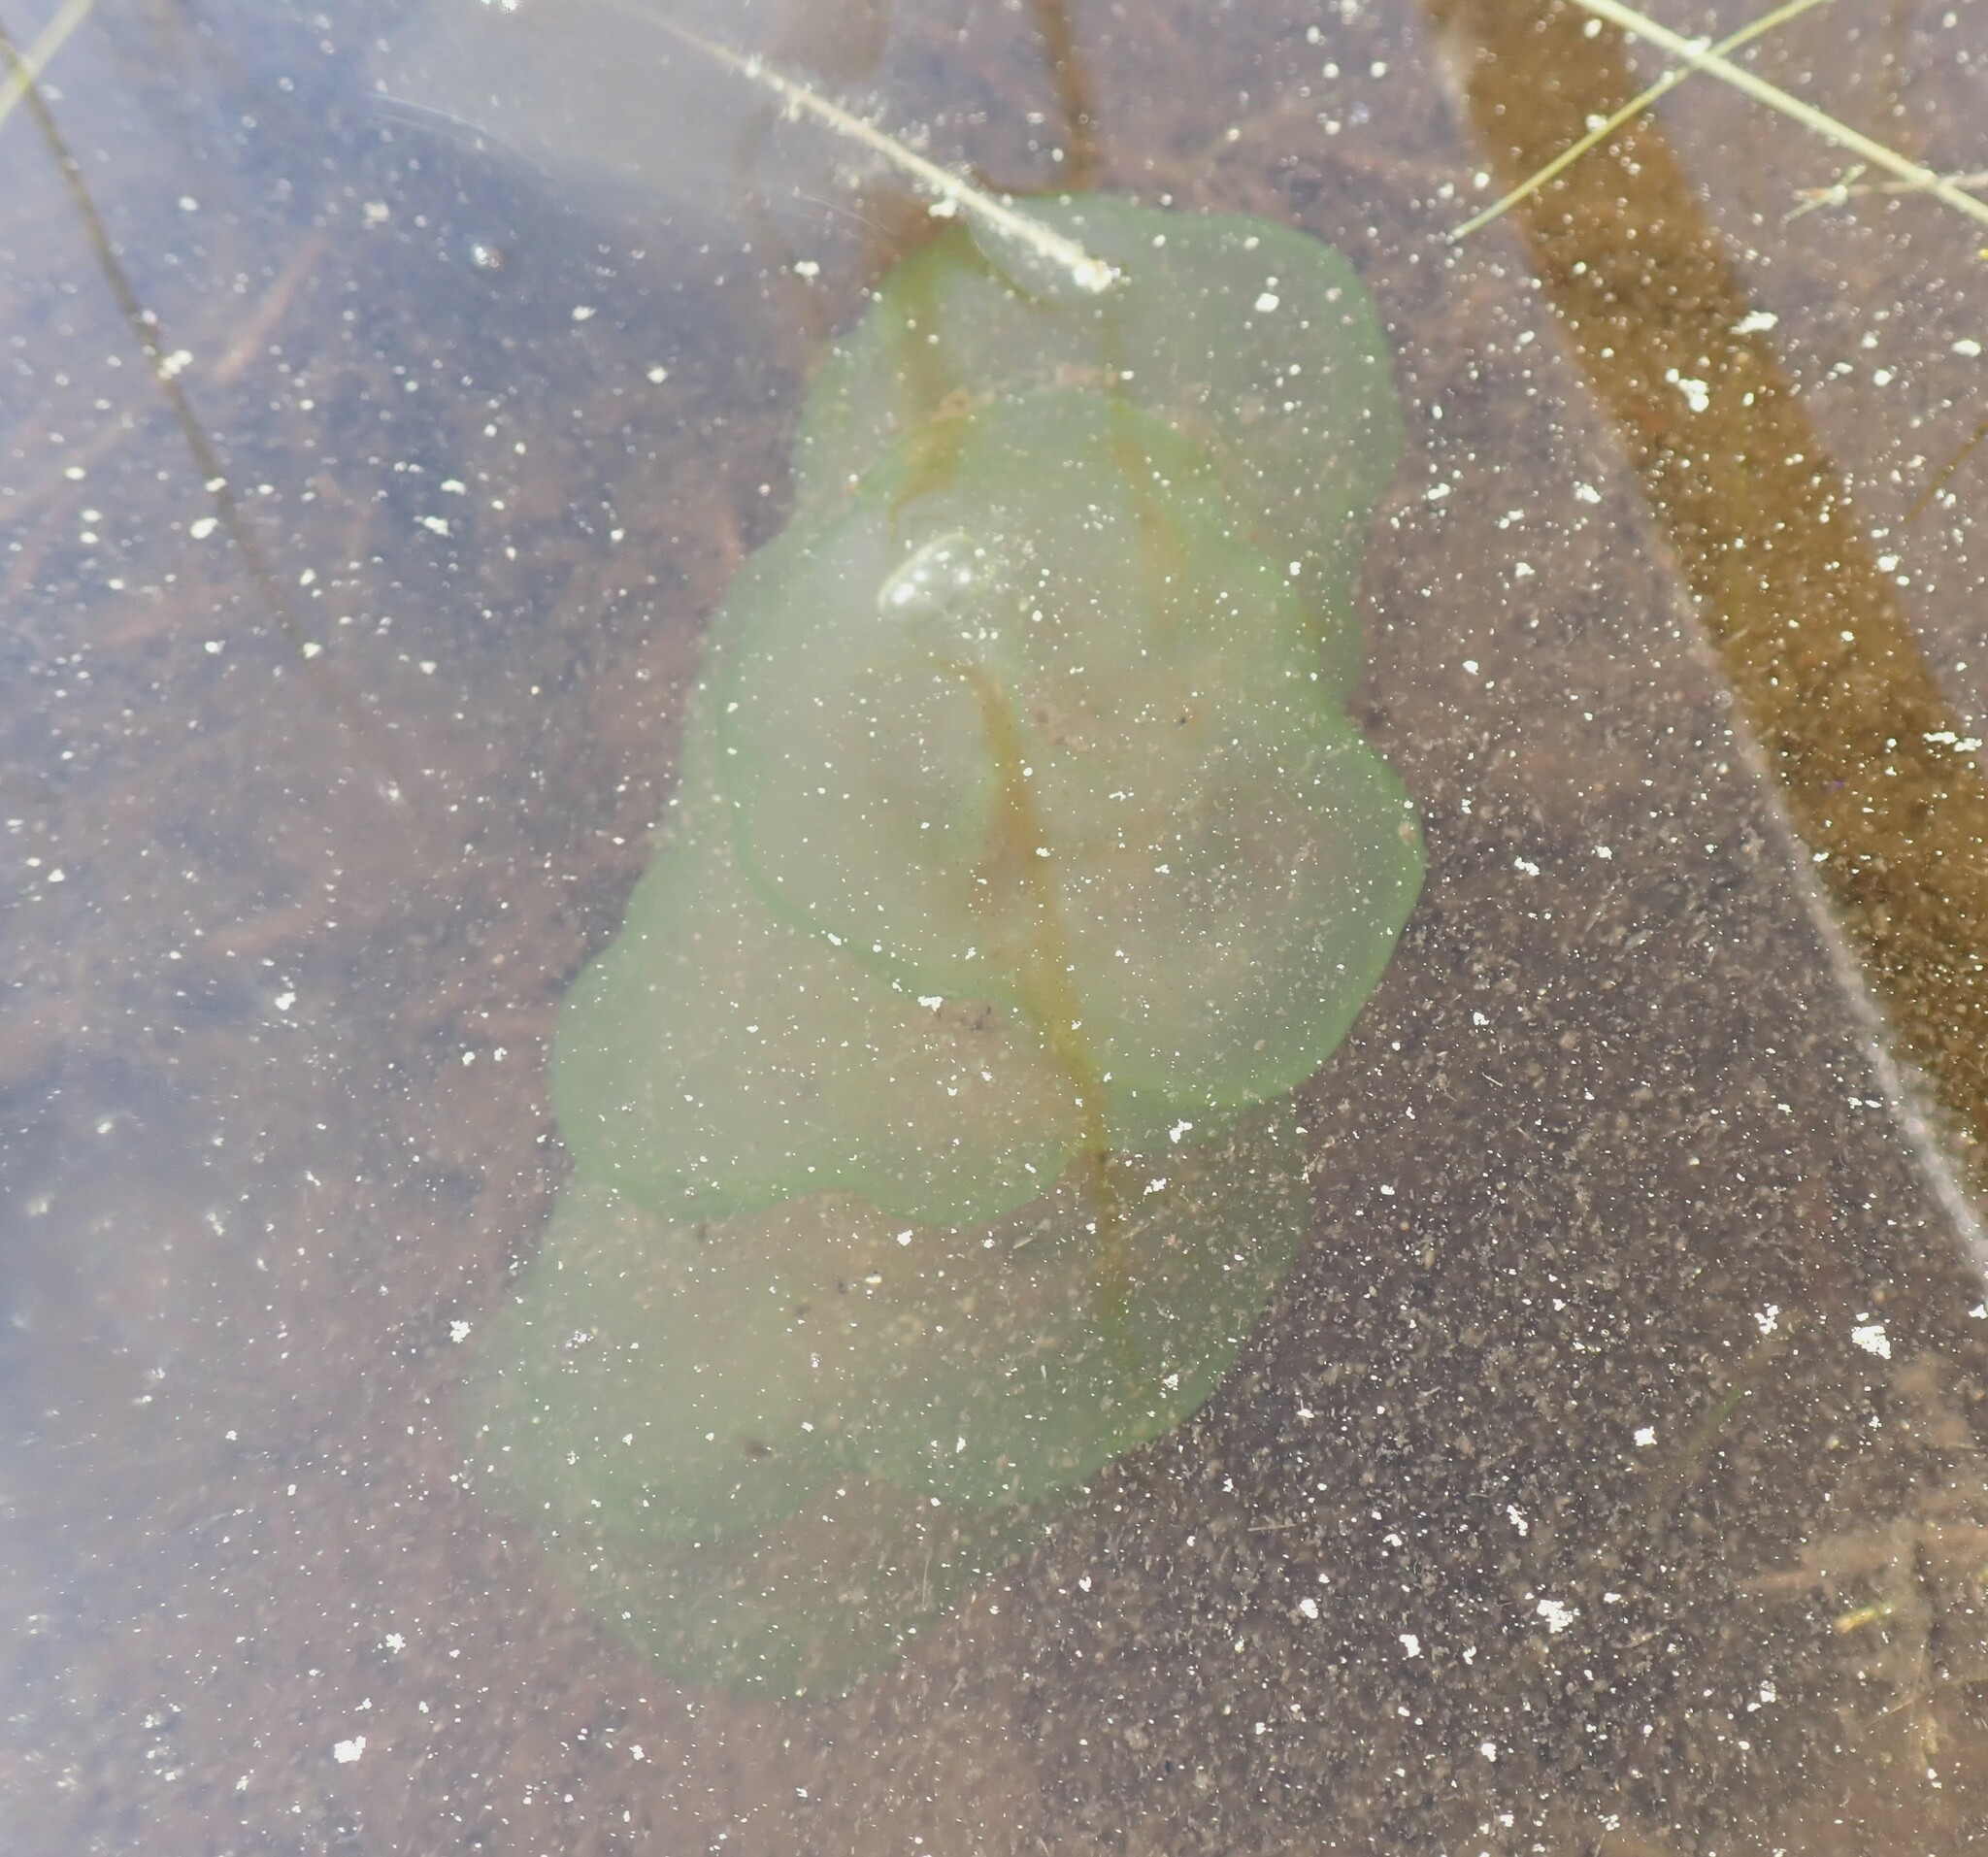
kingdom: Chromista
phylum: Ciliophora
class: Oligohymenophorea
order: Peritrichida
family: Ophrydiidae
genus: Ophrydium
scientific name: Ophrydium
